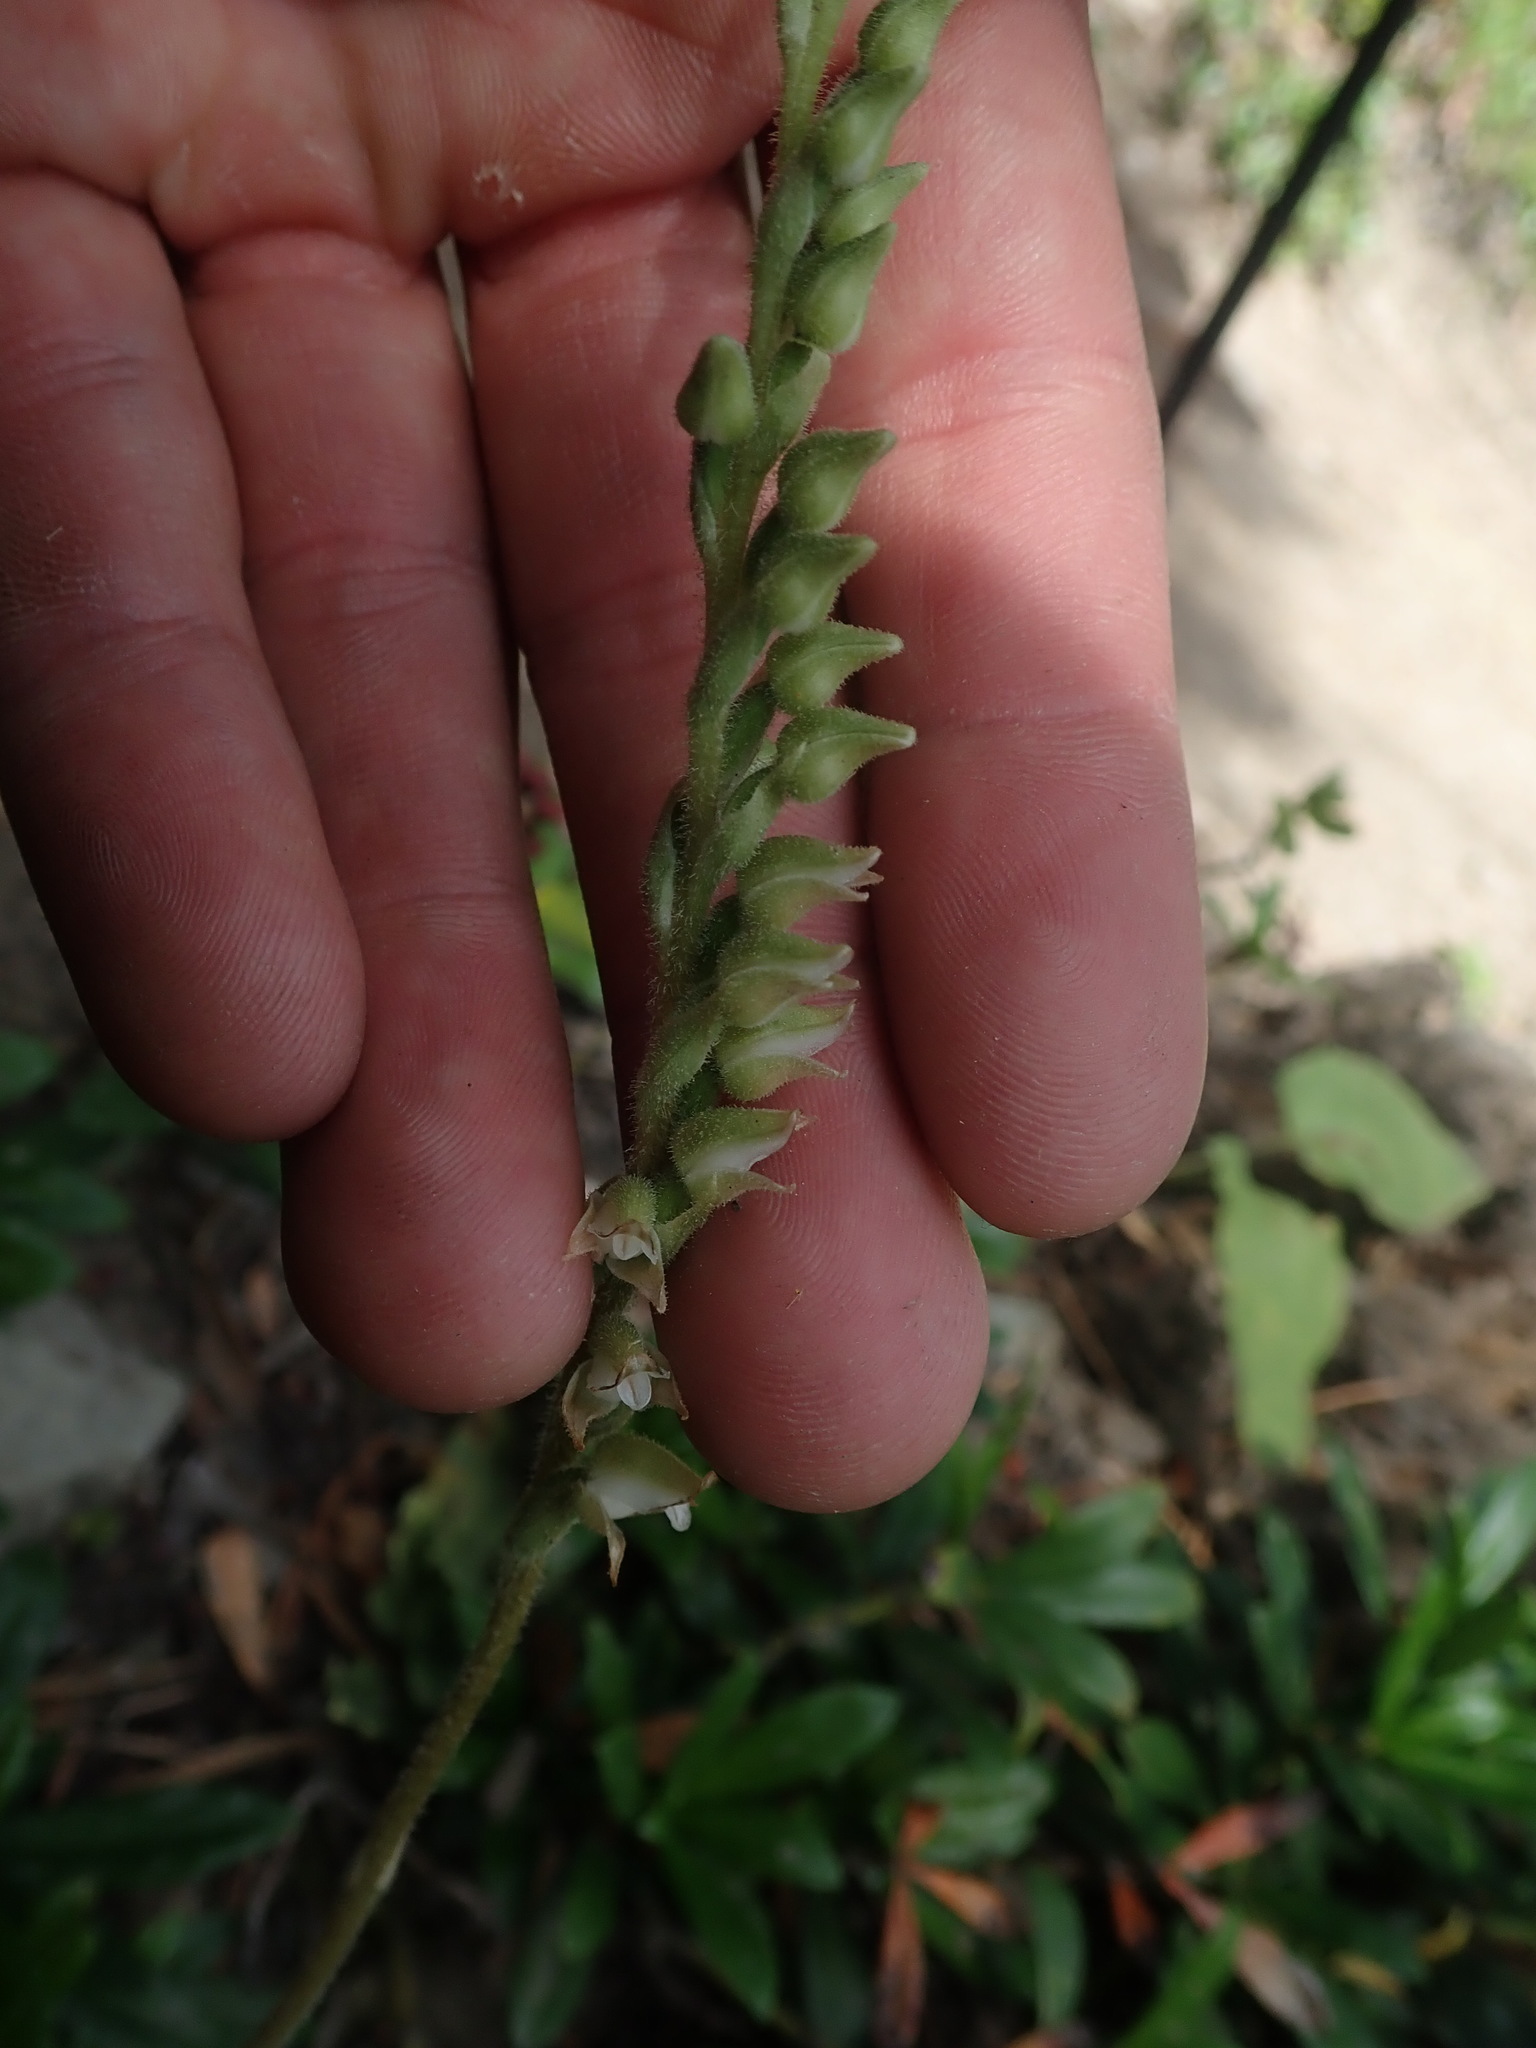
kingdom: Plantae
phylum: Tracheophyta
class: Liliopsida
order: Asparagales
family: Orchidaceae
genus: Goodyera
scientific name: Goodyera oblongifolia
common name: Giant rattlesnake-plantain
